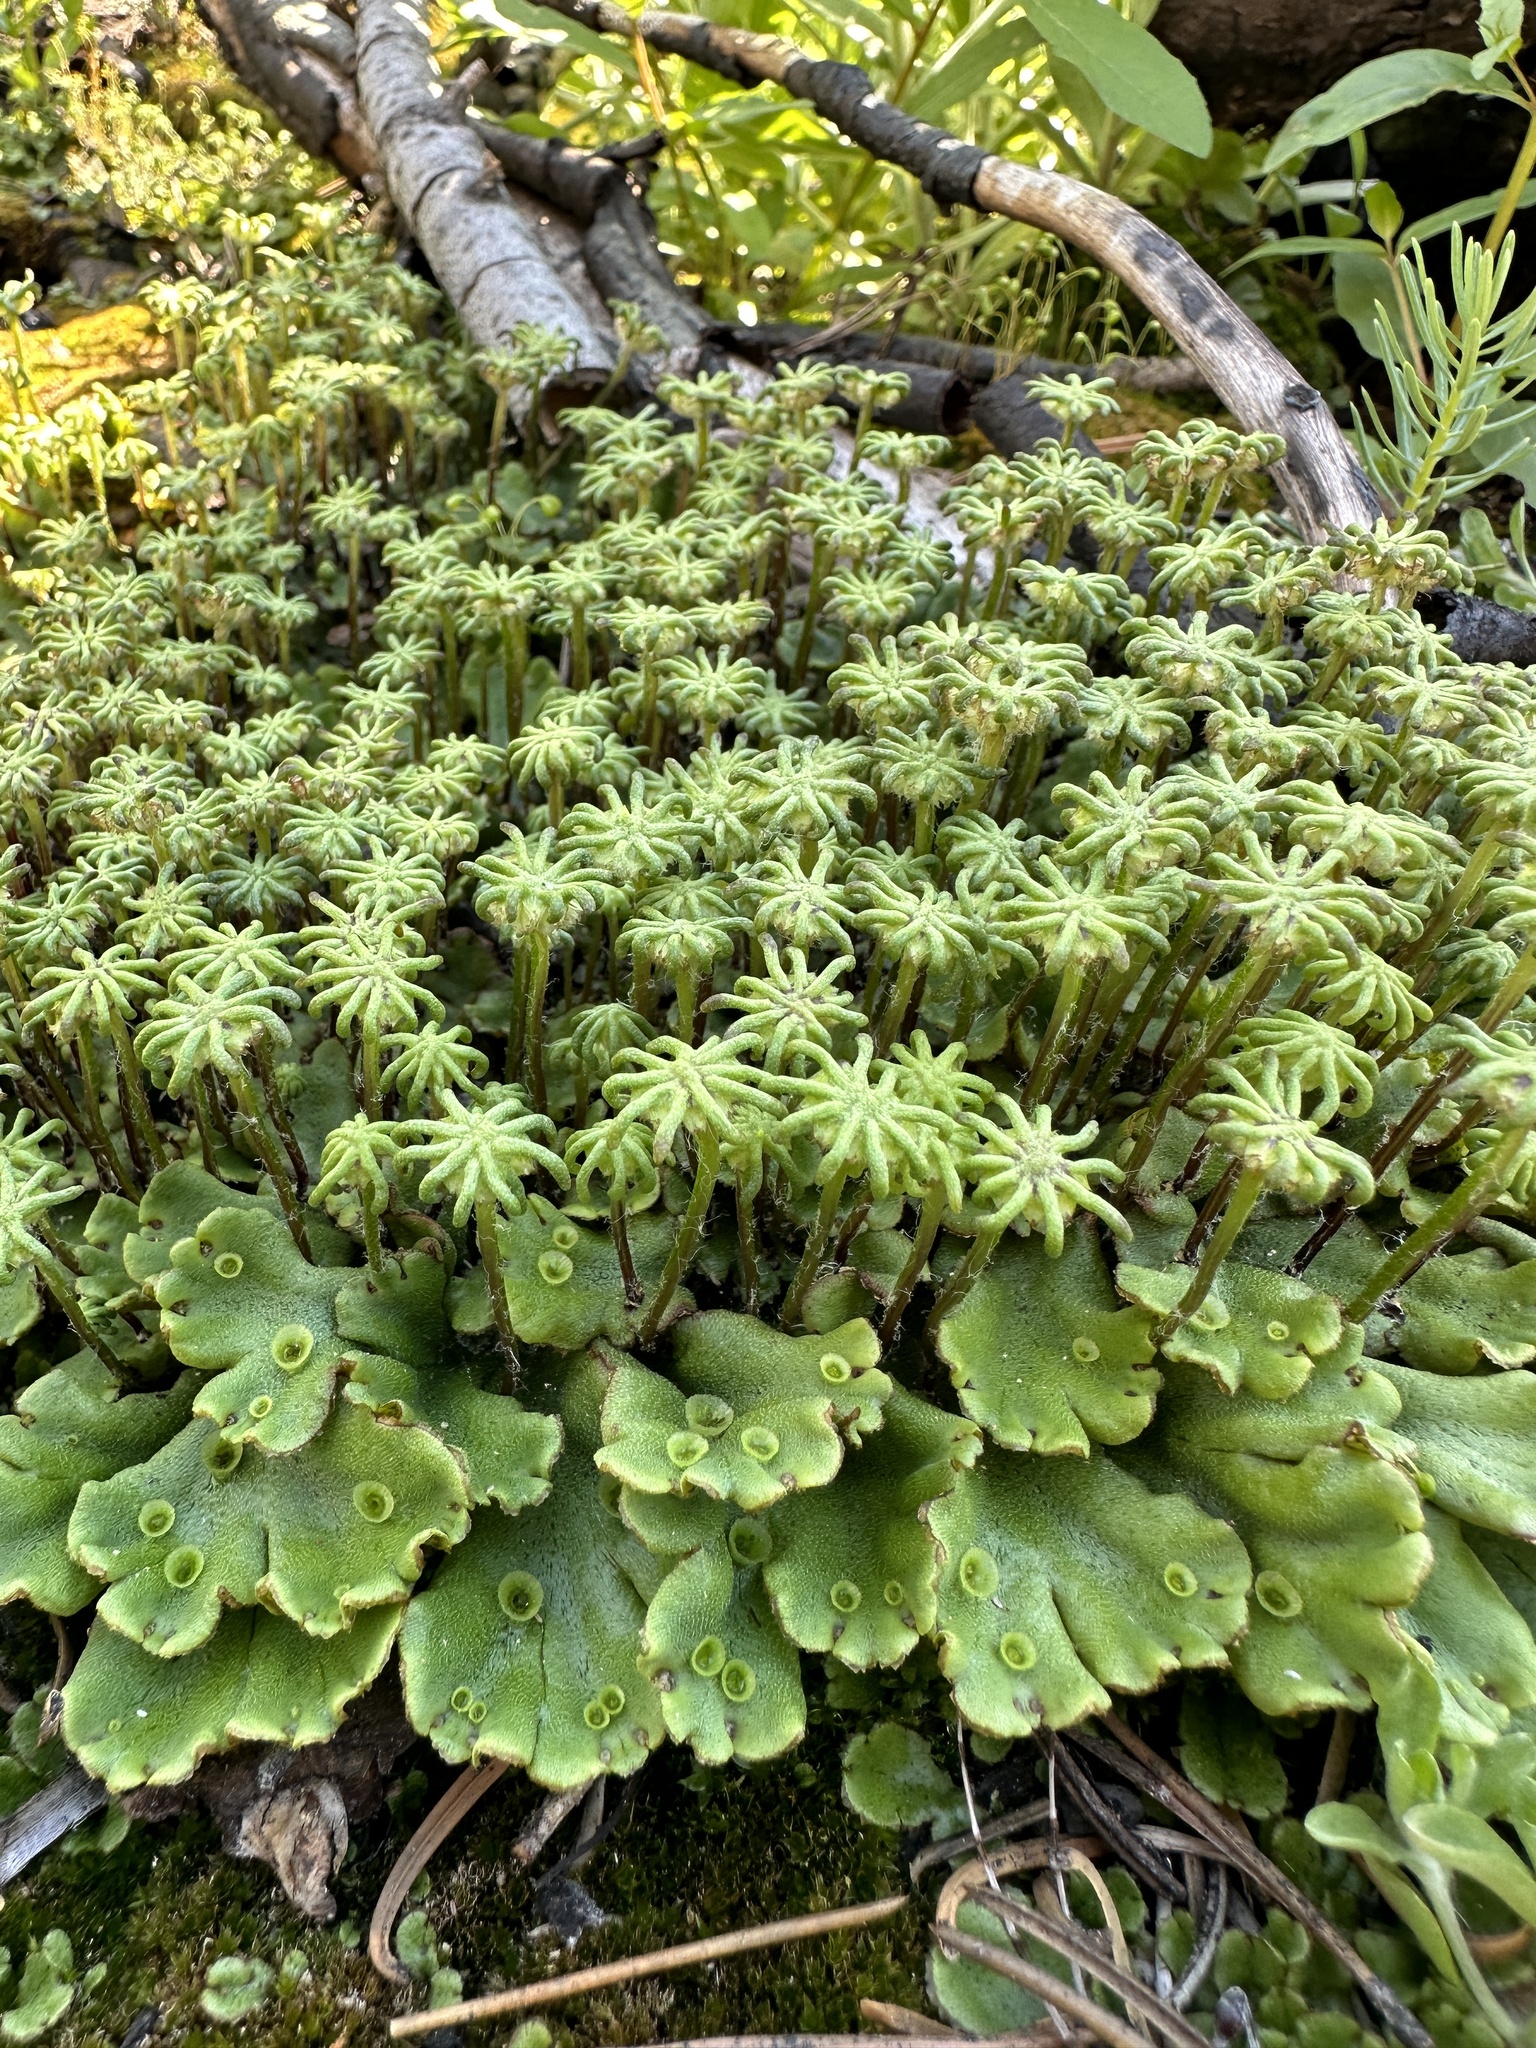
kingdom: Plantae
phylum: Marchantiophyta
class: Marchantiopsida
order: Marchantiales
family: Marchantiaceae
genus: Marchantia
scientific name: Marchantia polymorpha
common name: Common liverwort
